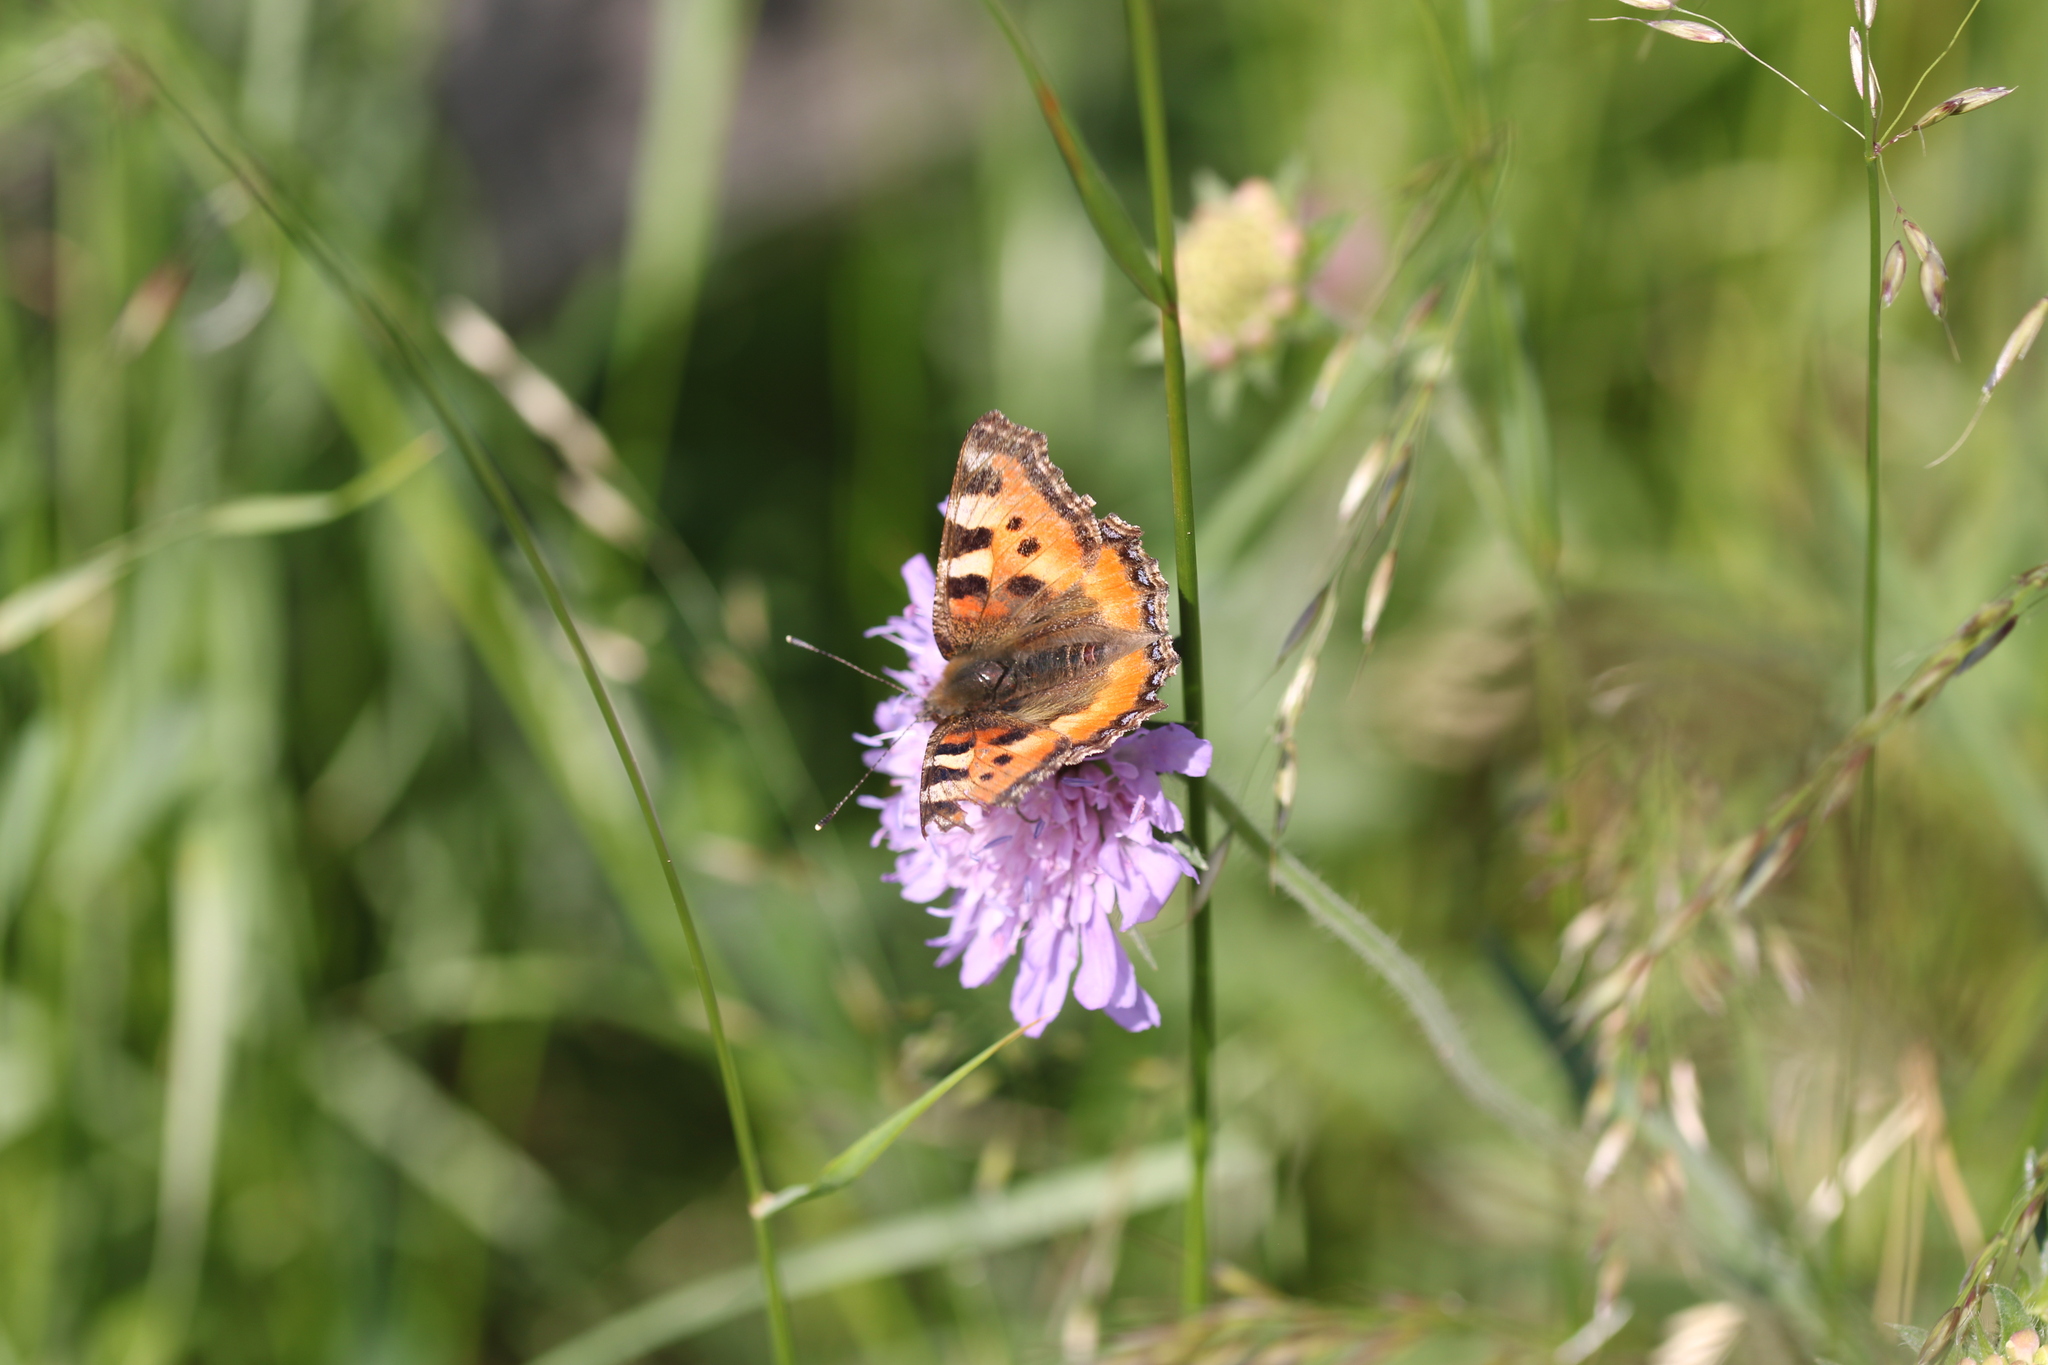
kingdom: Animalia
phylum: Arthropoda
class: Insecta
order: Lepidoptera
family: Nymphalidae
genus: Aglais
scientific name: Aglais urticae
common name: Small tortoiseshell
